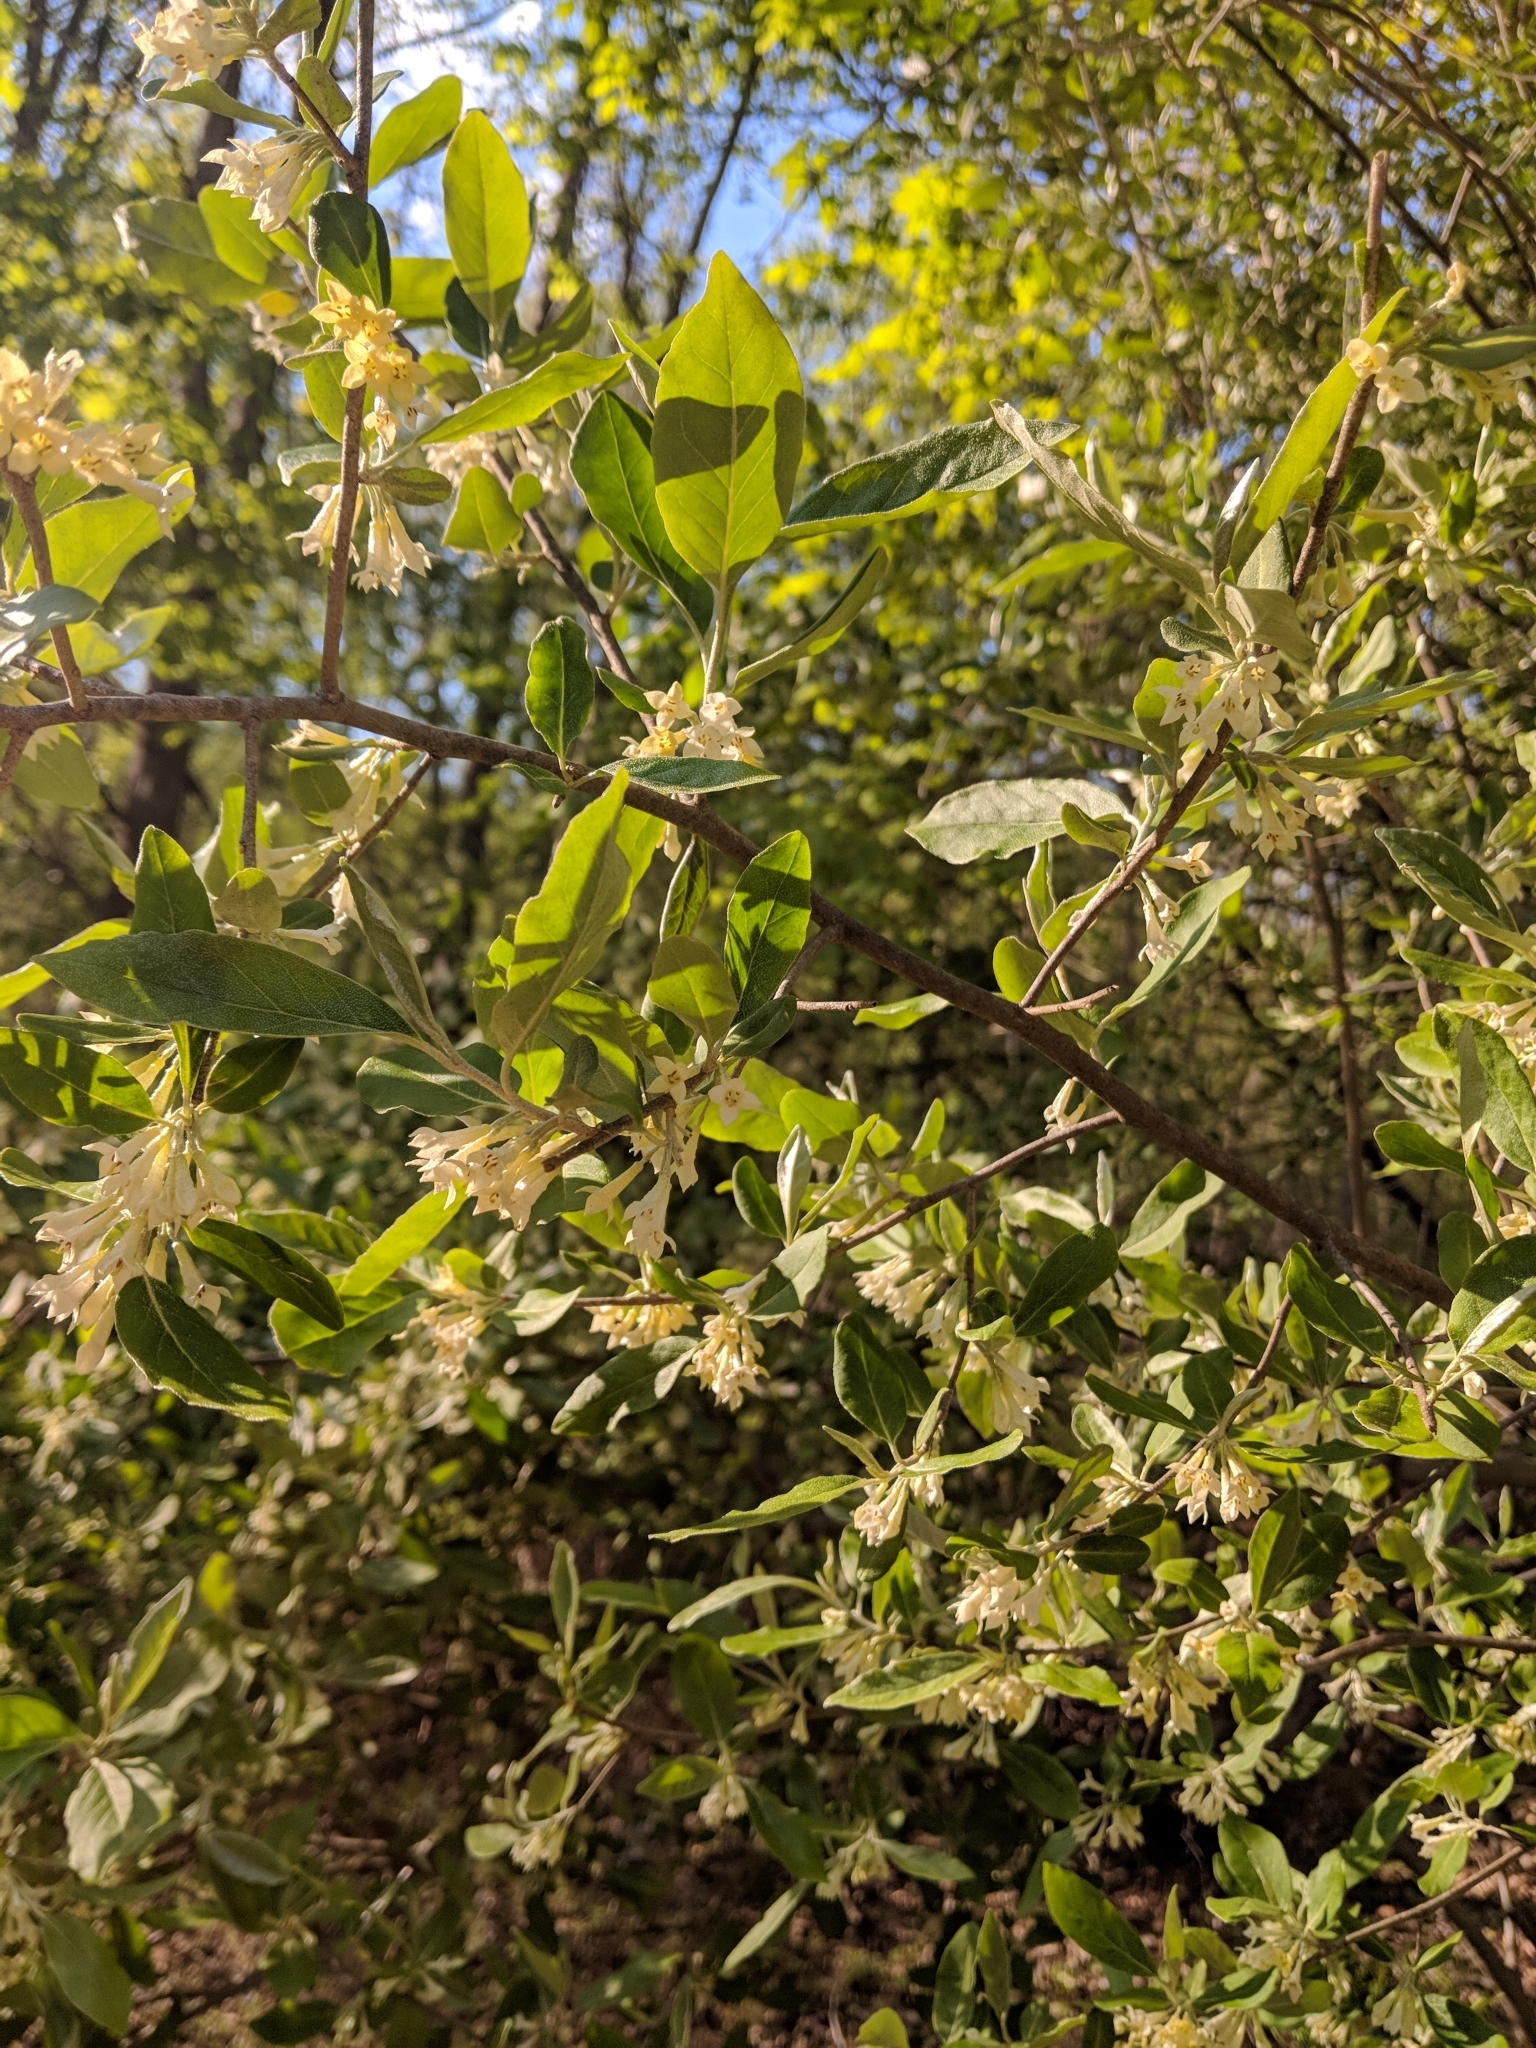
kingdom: Plantae
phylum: Tracheophyta
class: Magnoliopsida
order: Rosales
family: Elaeagnaceae
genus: Elaeagnus
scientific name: Elaeagnus umbellata
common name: Autumn olive
